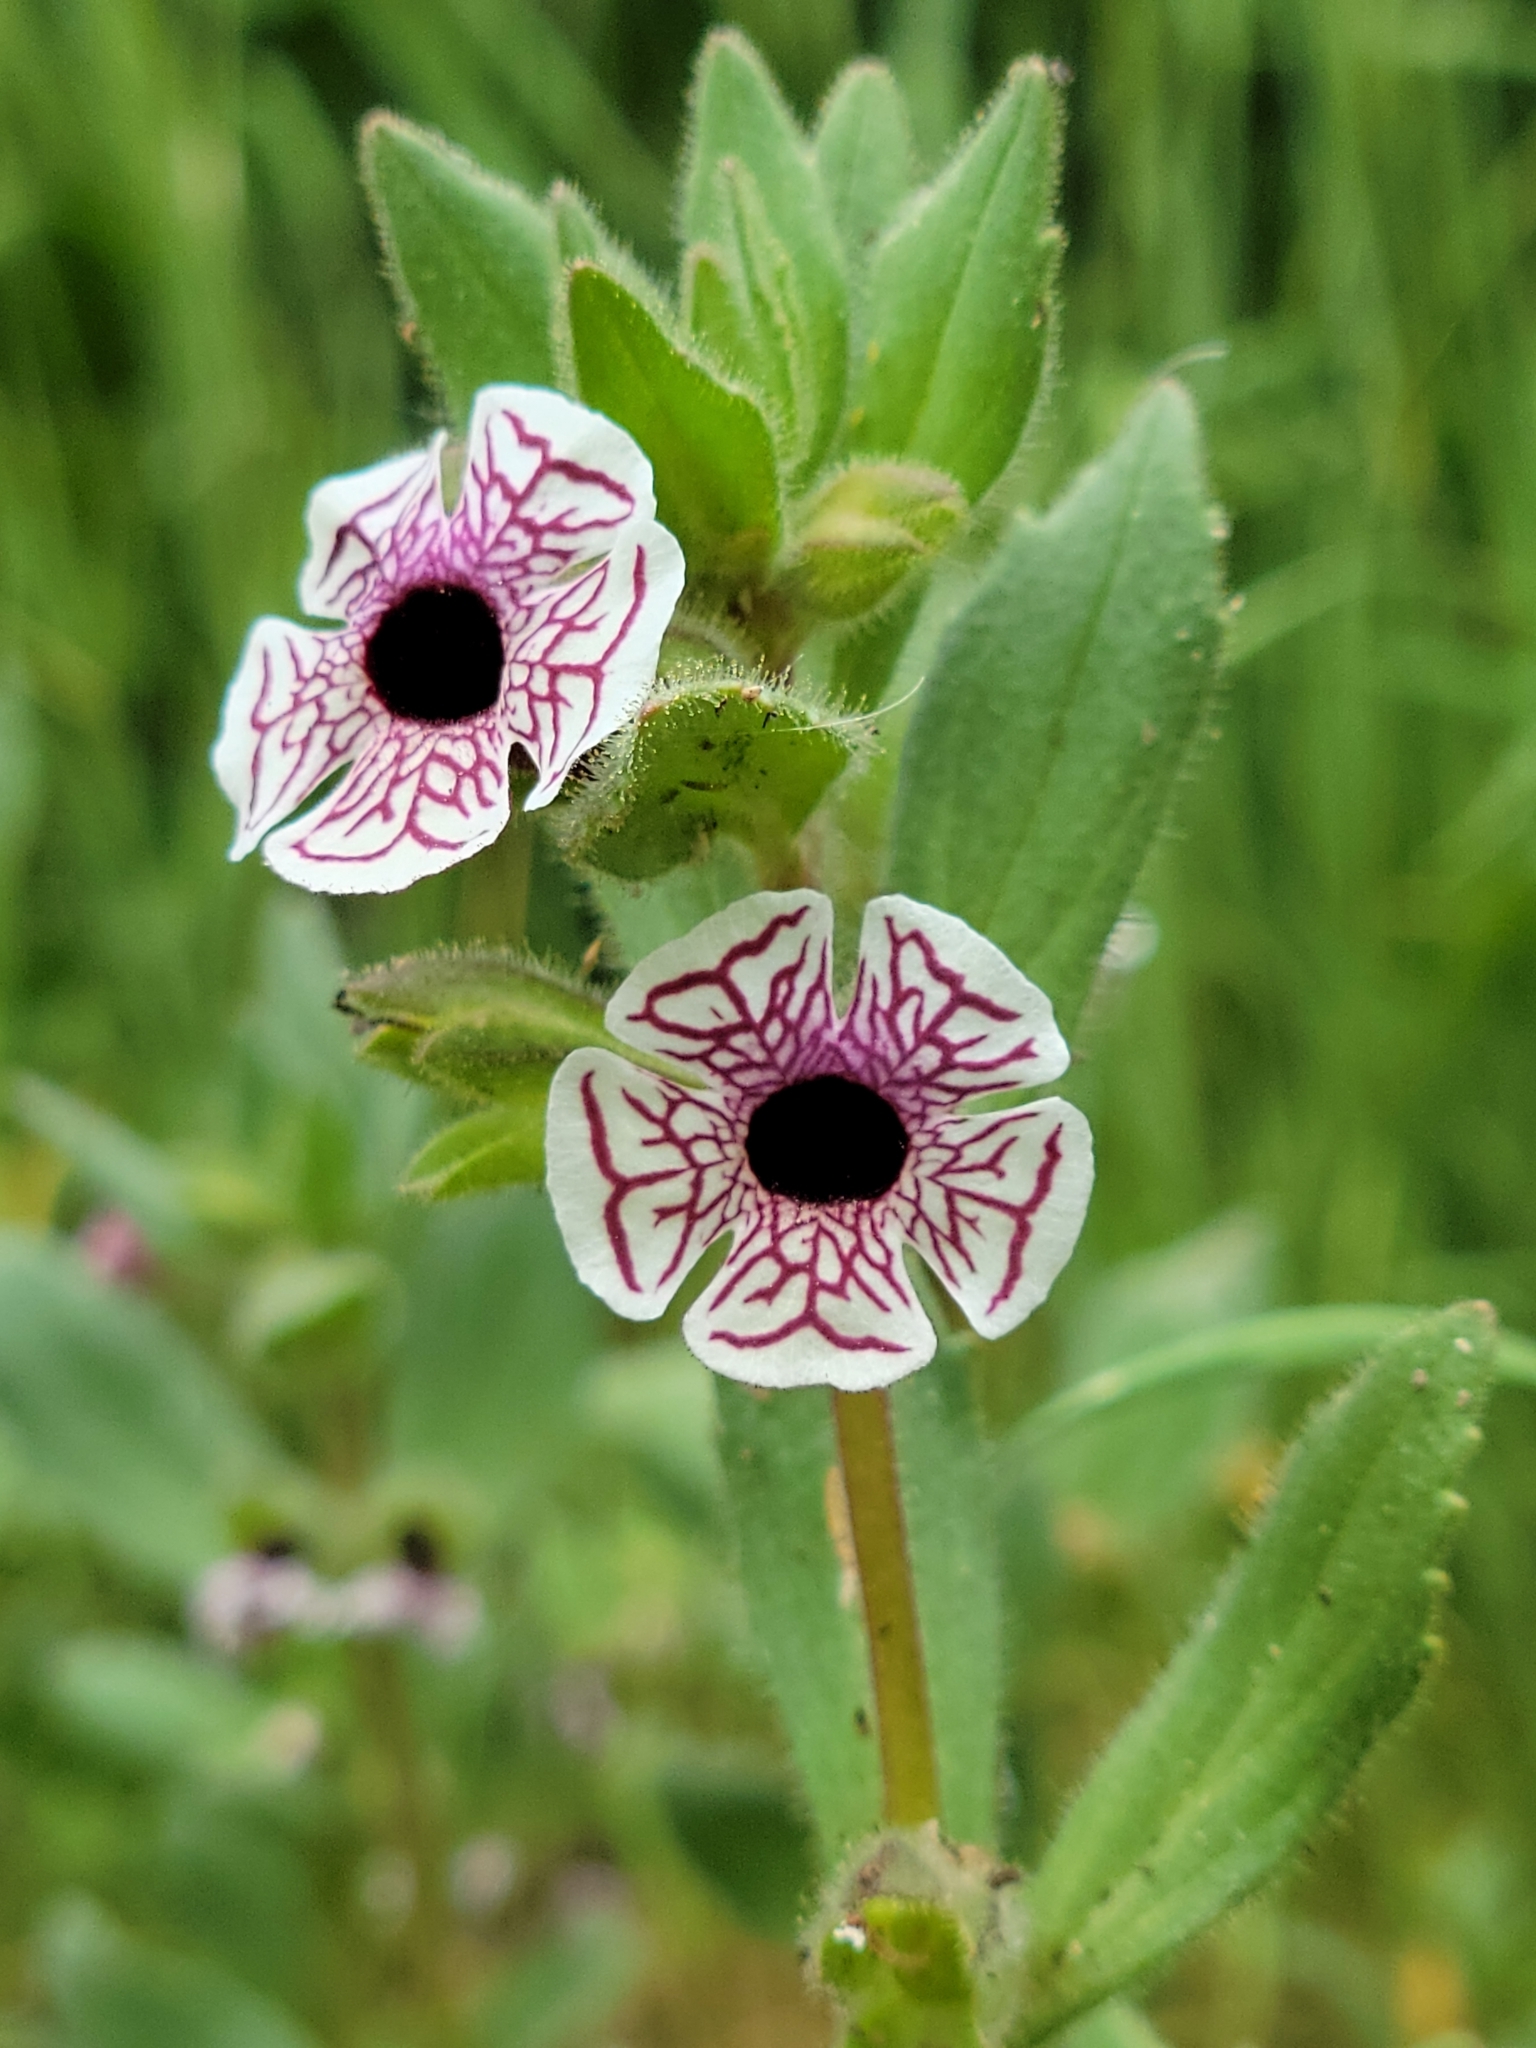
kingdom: Plantae
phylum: Tracheophyta
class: Magnoliopsida
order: Lamiales
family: Phrymaceae
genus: Diplacus
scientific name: Diplacus pictus
